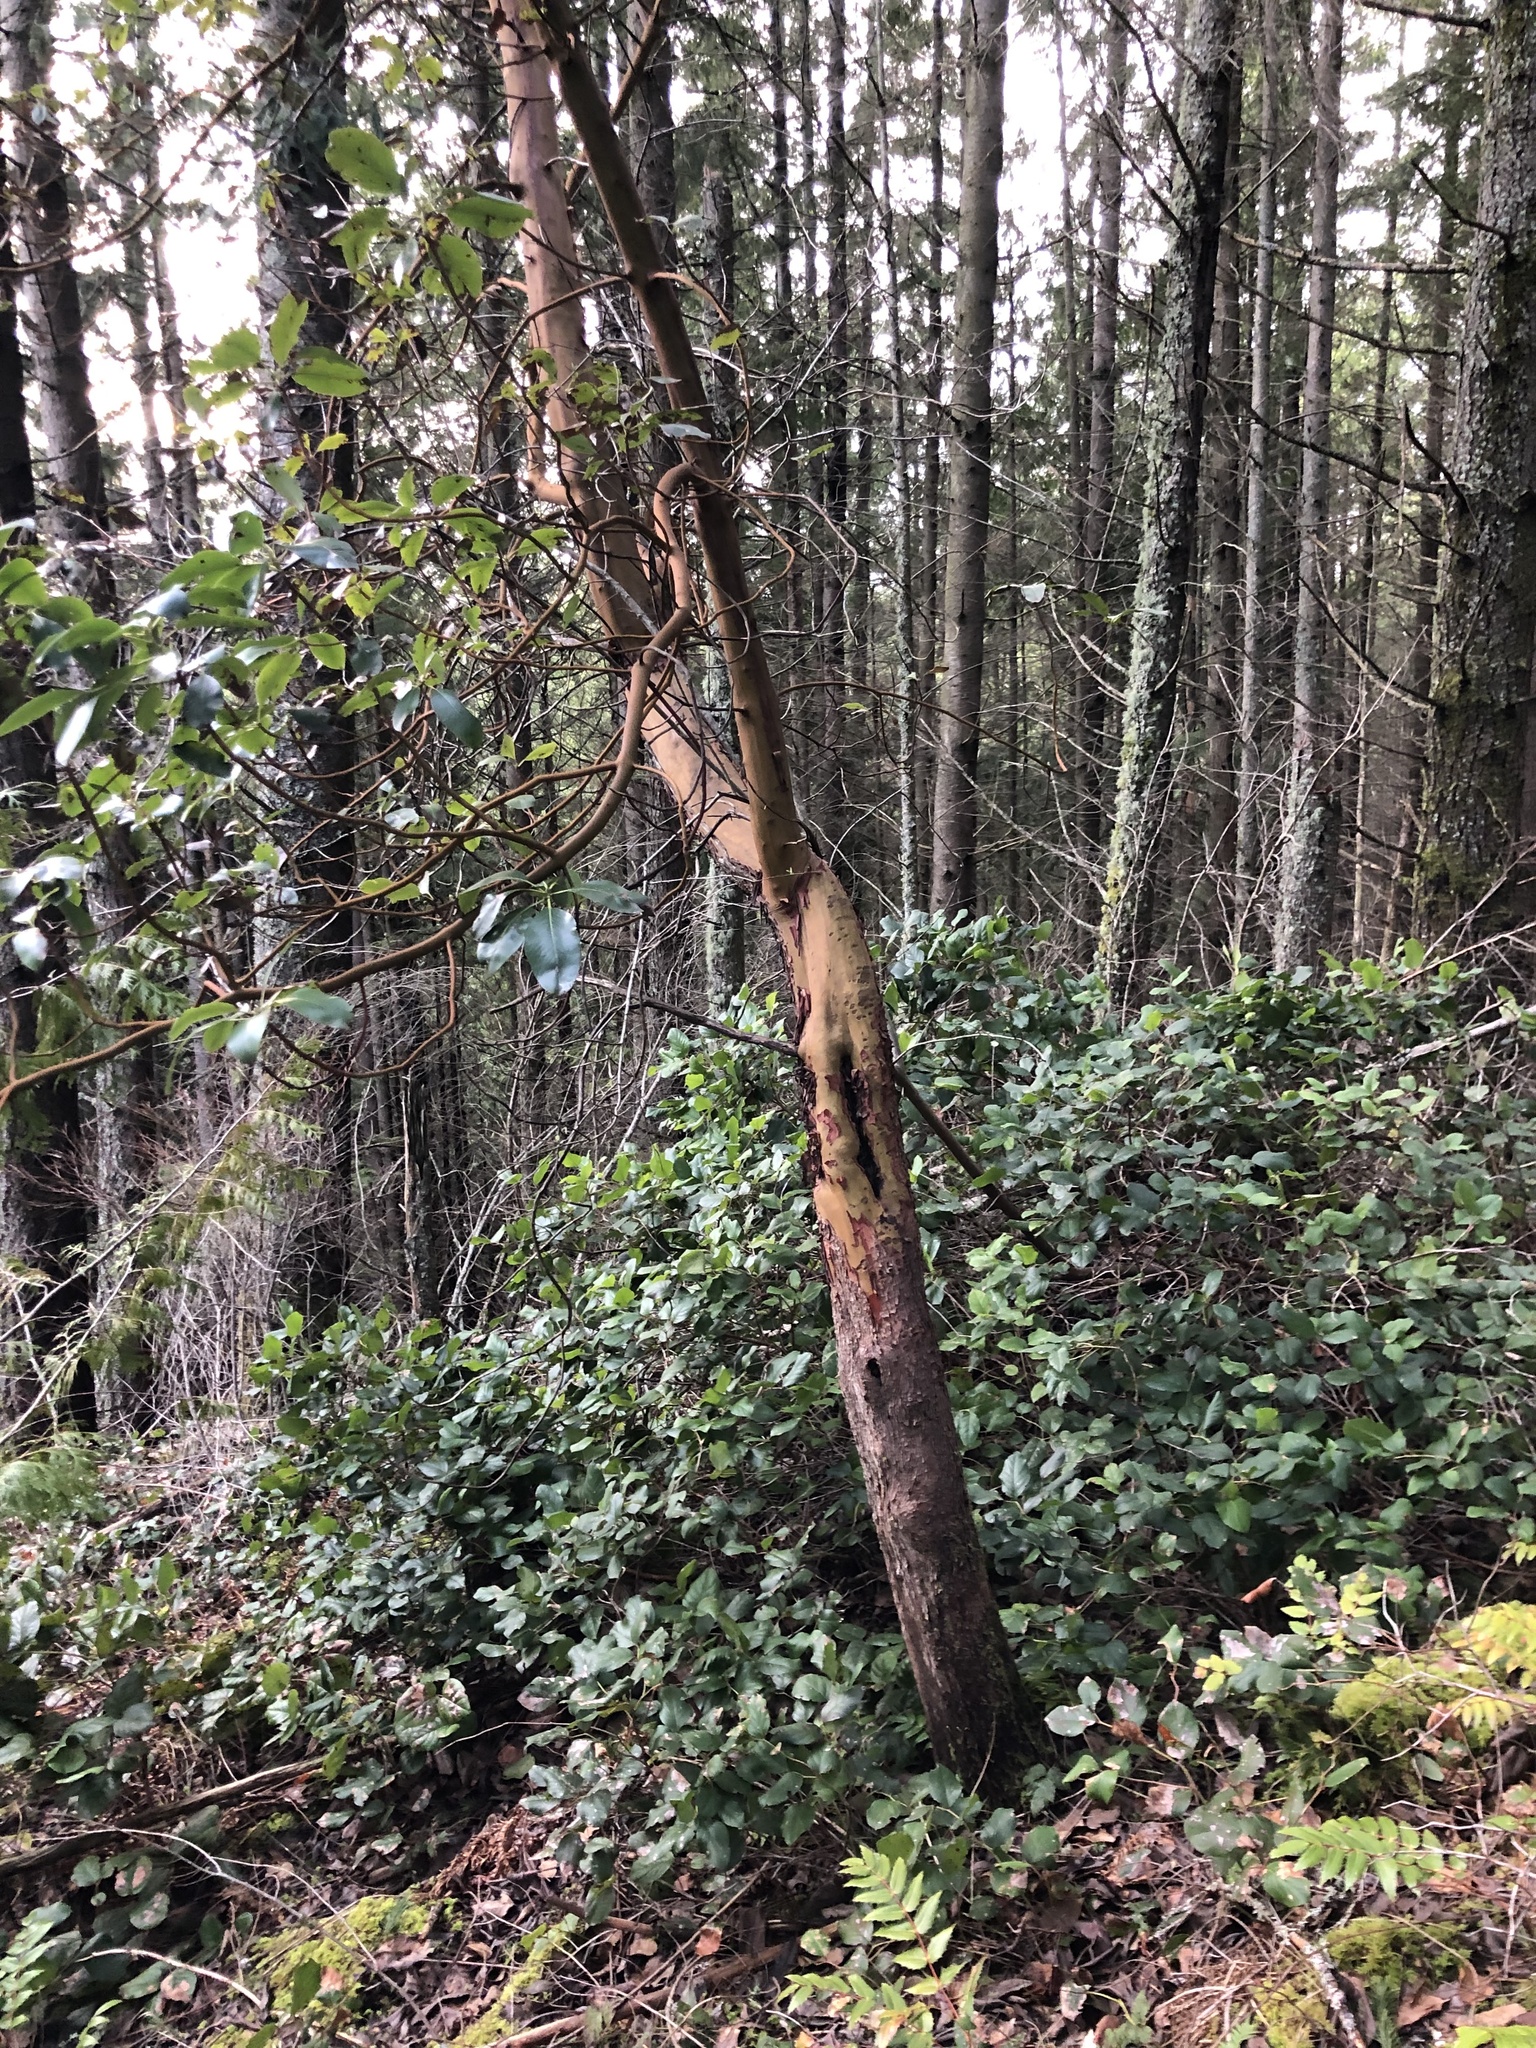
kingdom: Plantae
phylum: Tracheophyta
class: Magnoliopsida
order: Ericales
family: Ericaceae
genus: Arbutus
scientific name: Arbutus menziesii
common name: Pacific madrone
